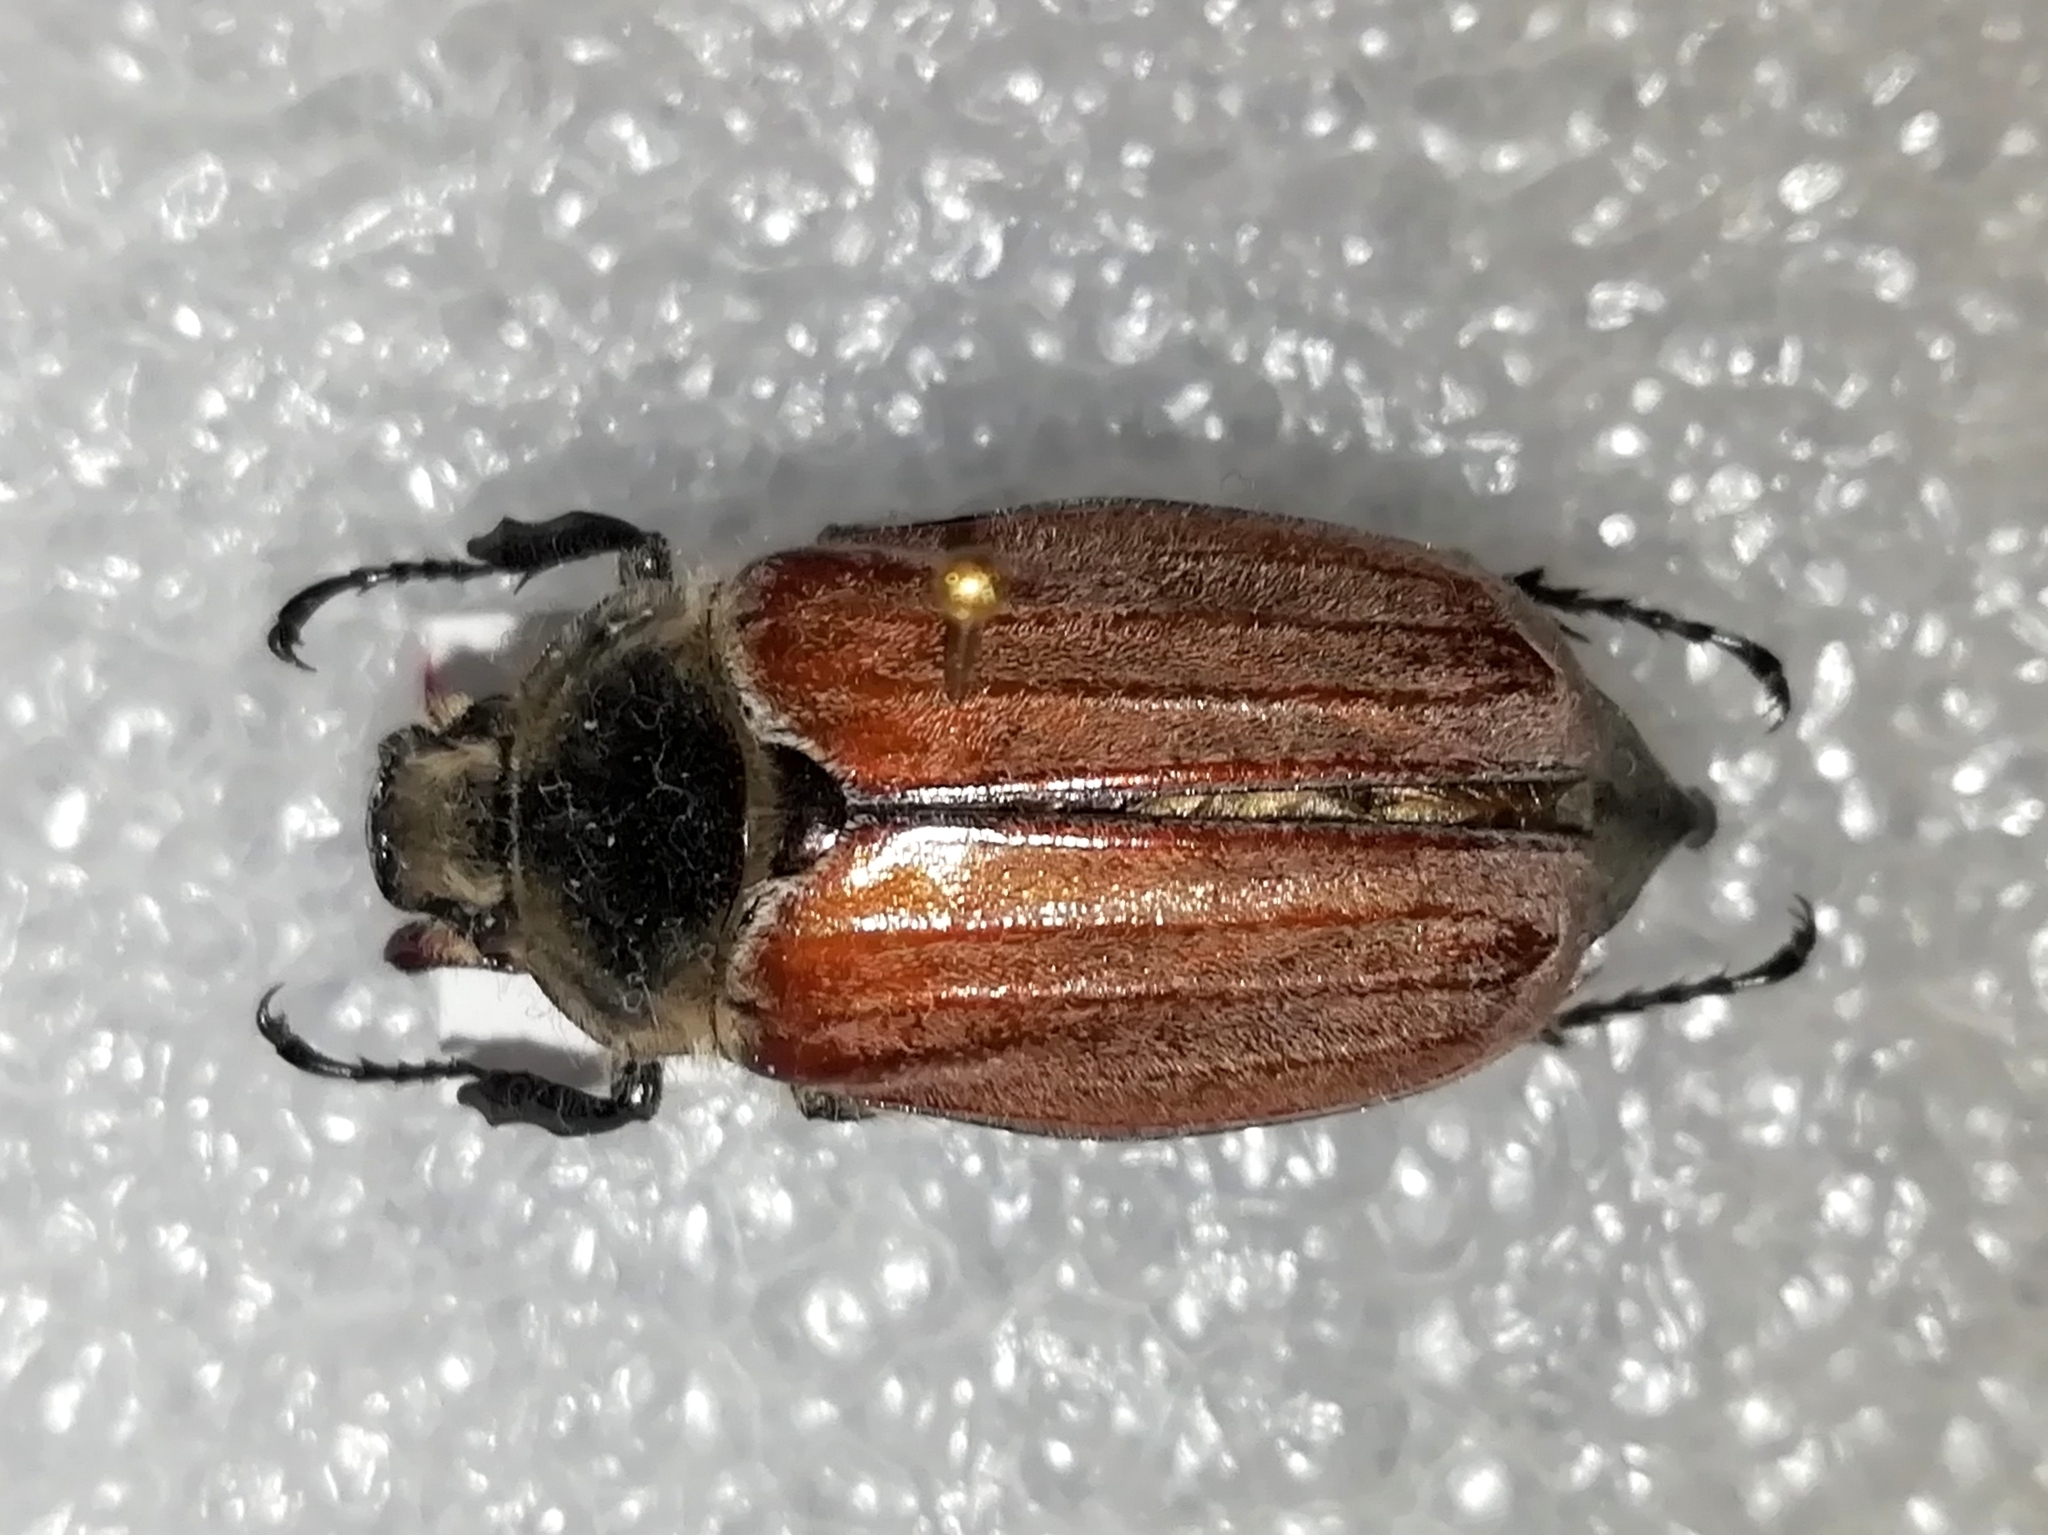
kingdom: Animalia
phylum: Arthropoda
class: Insecta
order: Coleoptera
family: Scarabaeidae
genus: Melolontha
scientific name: Melolontha hippocastani
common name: Chestnut cockchafer
